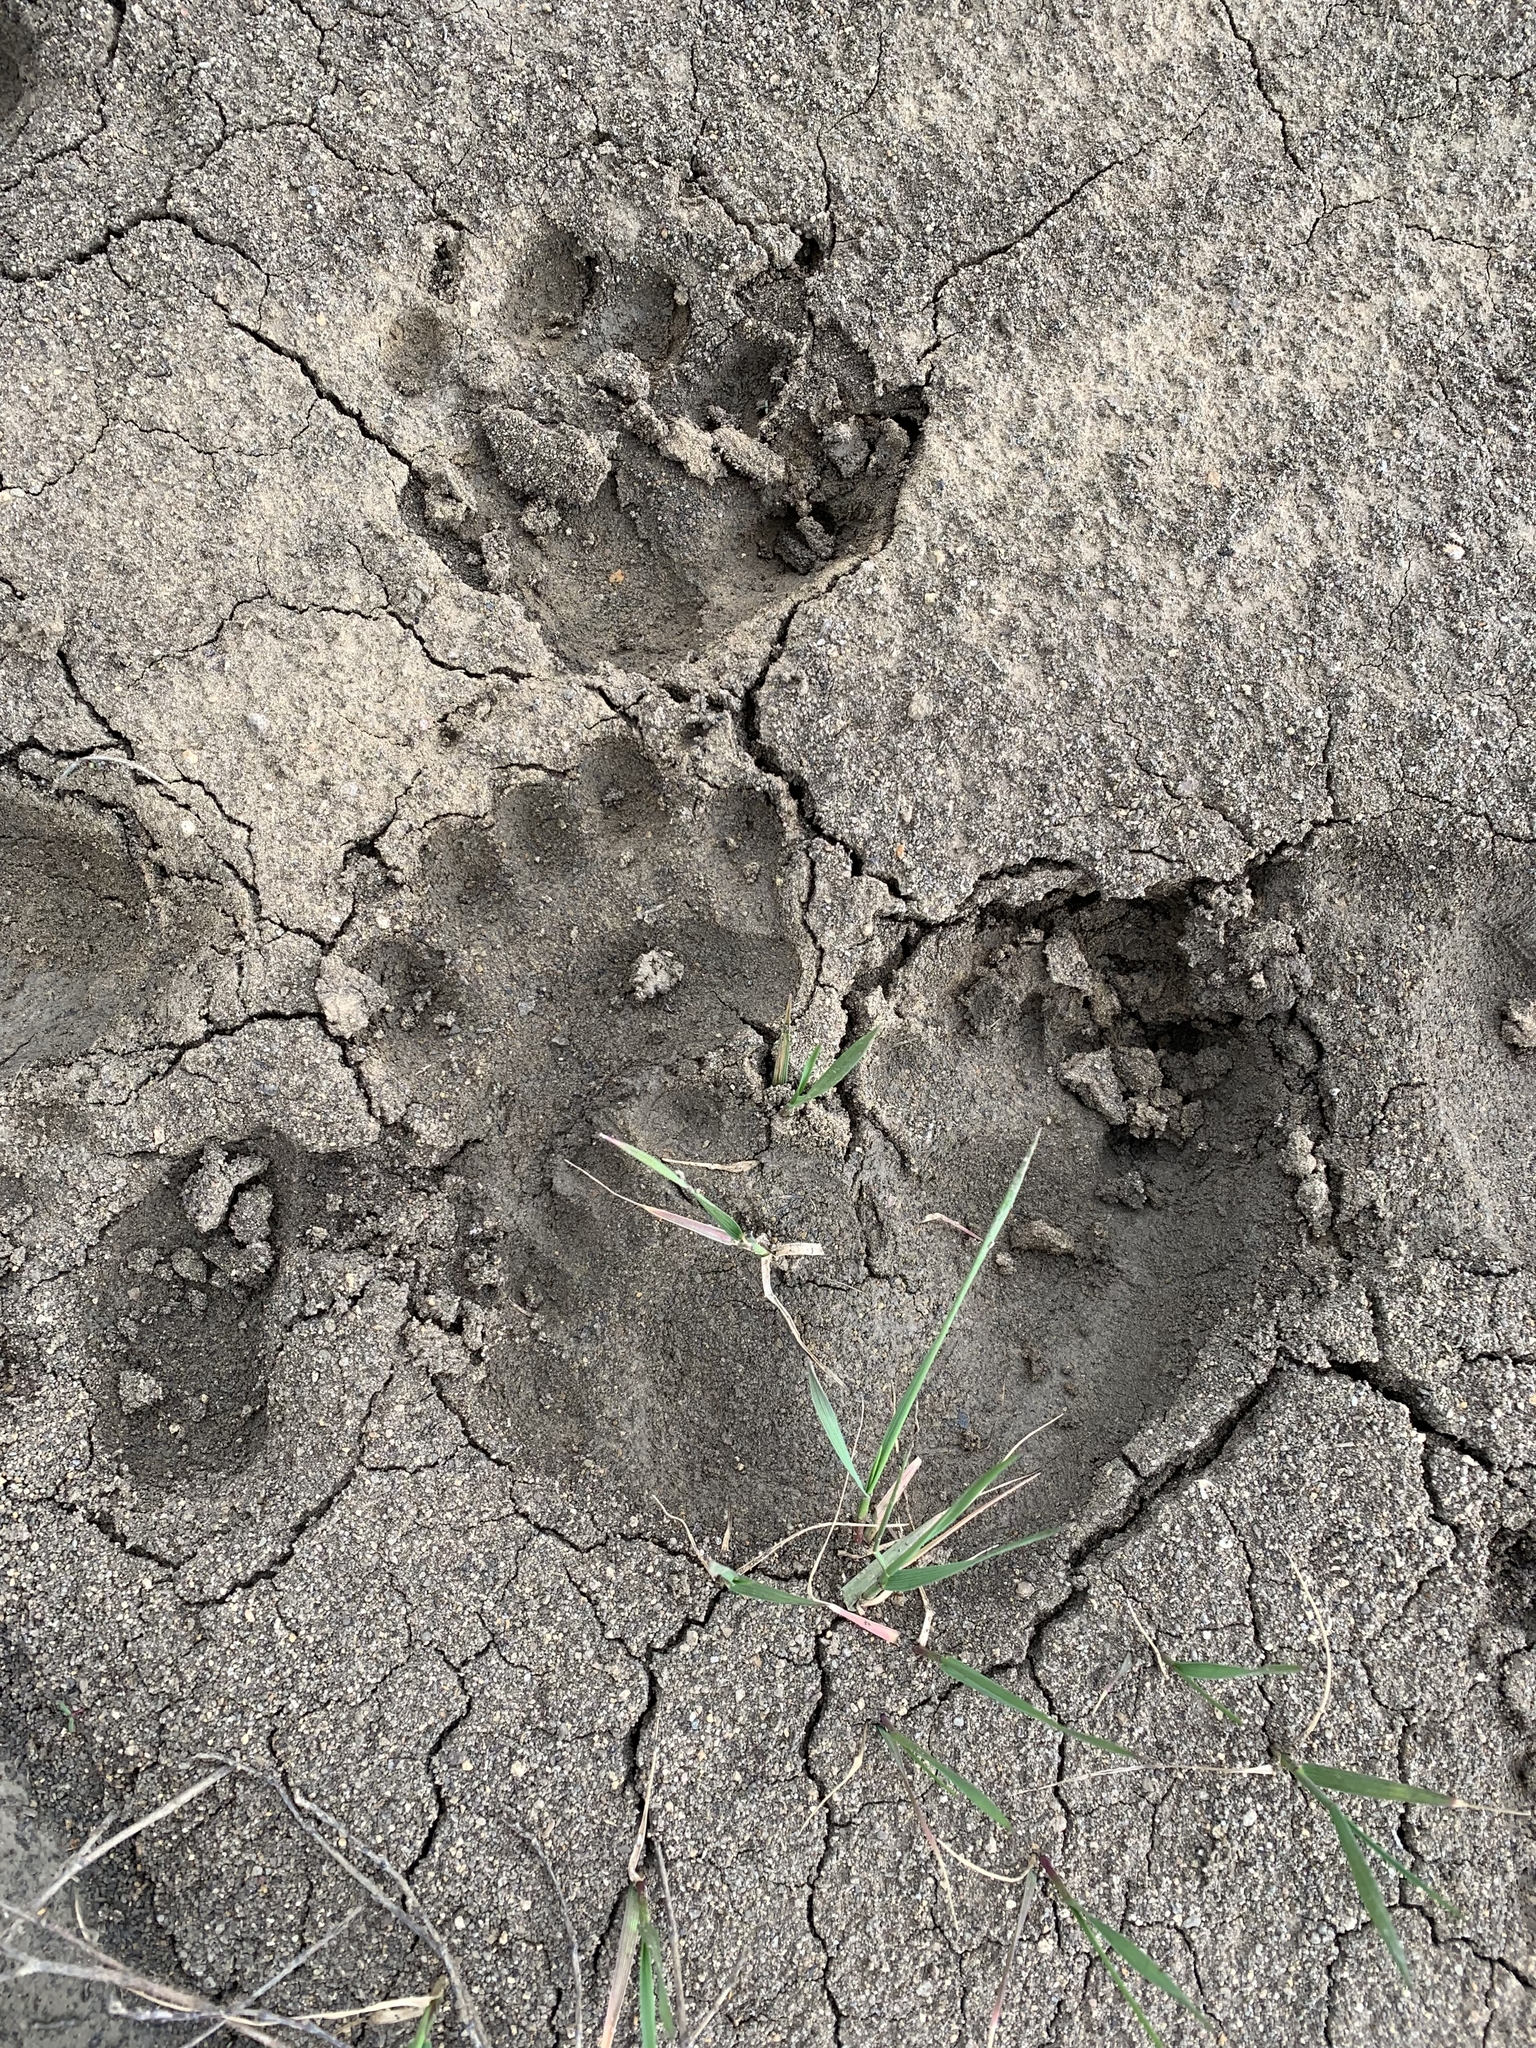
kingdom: Animalia
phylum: Chordata
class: Mammalia
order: Carnivora
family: Ursidae
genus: Ursus
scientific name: Ursus americanus
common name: American black bear
